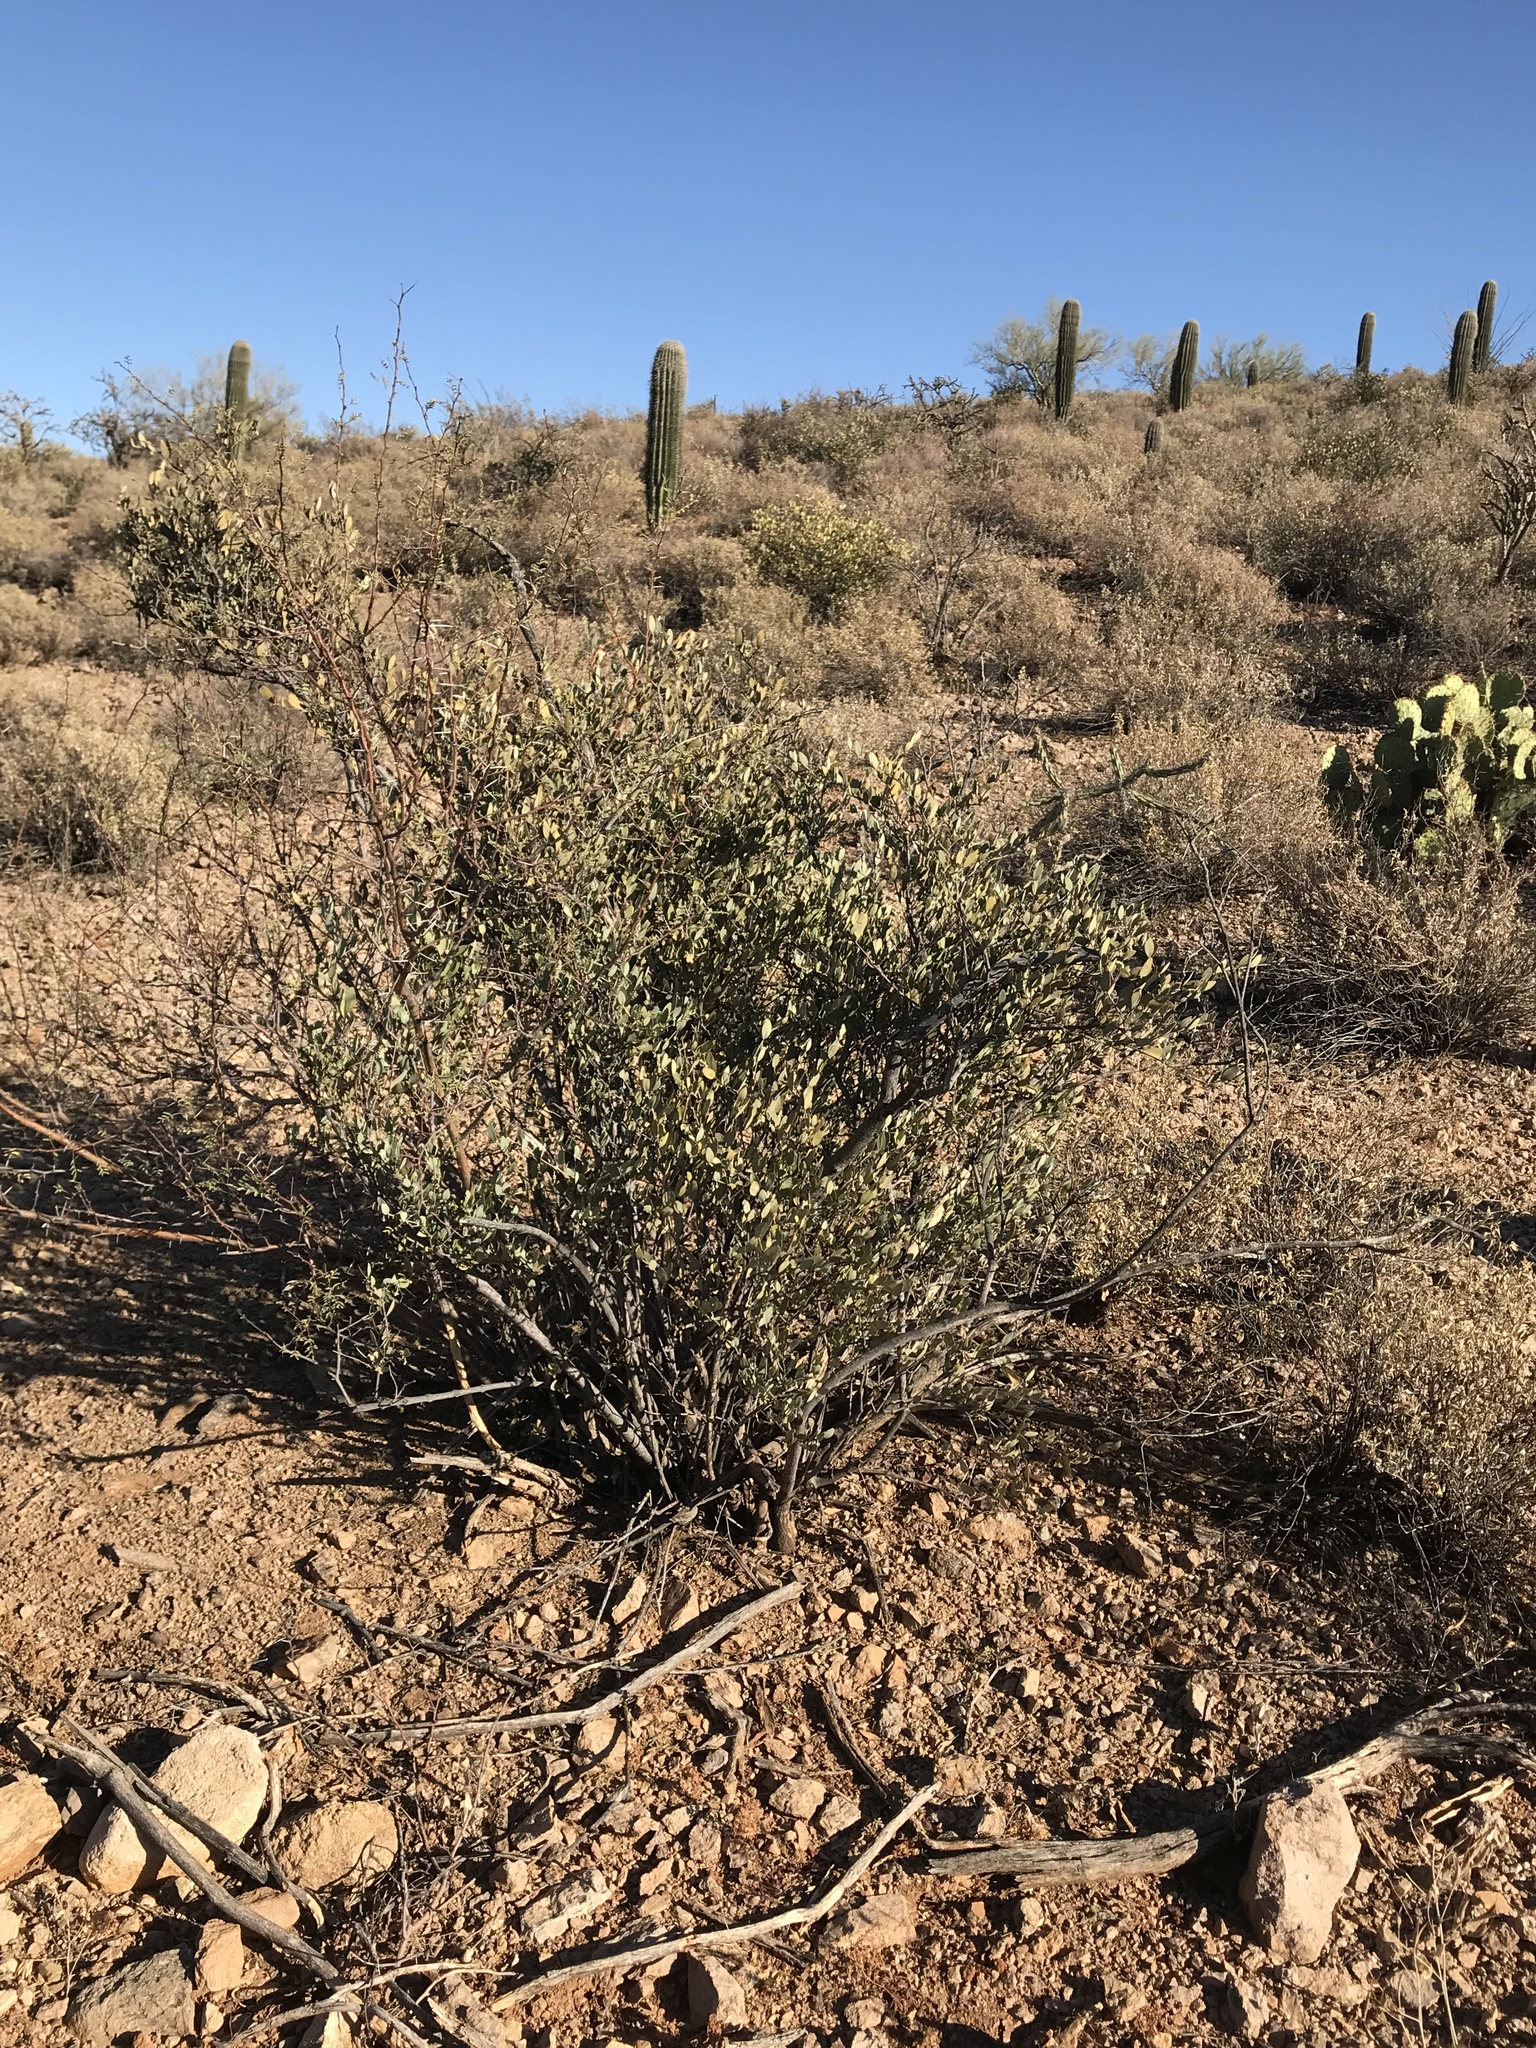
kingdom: Plantae
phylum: Tracheophyta
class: Magnoliopsida
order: Caryophyllales
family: Simmondsiaceae
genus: Simmondsia
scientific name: Simmondsia chinensis
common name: Jojoba
